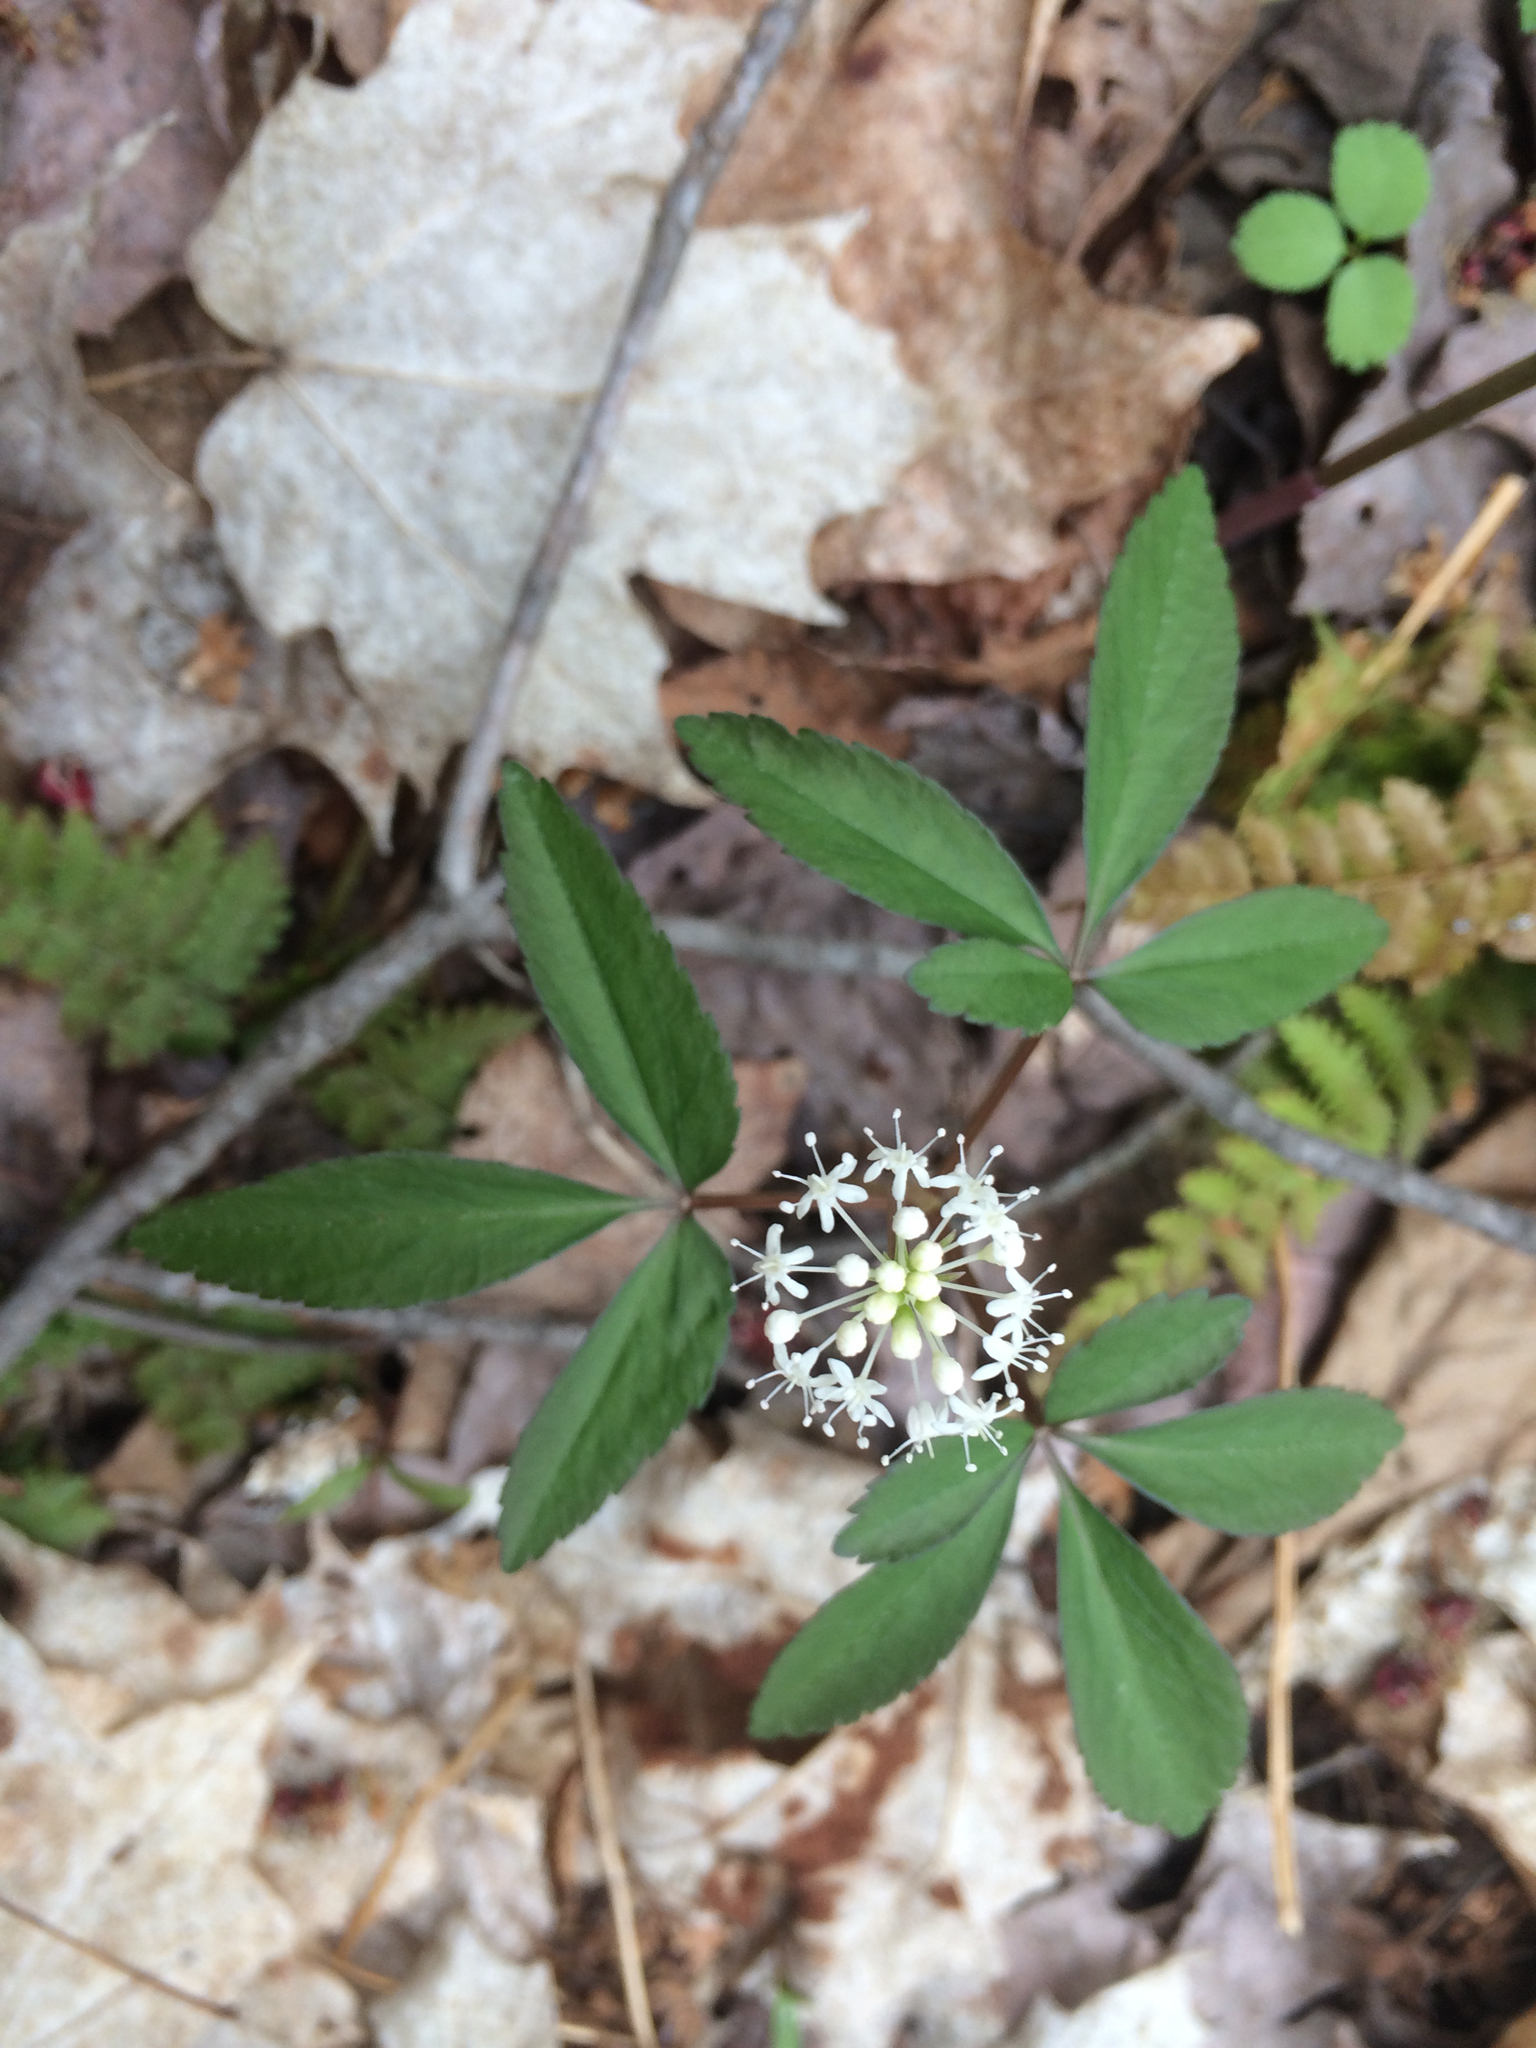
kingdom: Plantae
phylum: Tracheophyta
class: Magnoliopsida
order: Apiales
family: Araliaceae
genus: Panax
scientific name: Panax trifolius
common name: Dwarf ginseng
